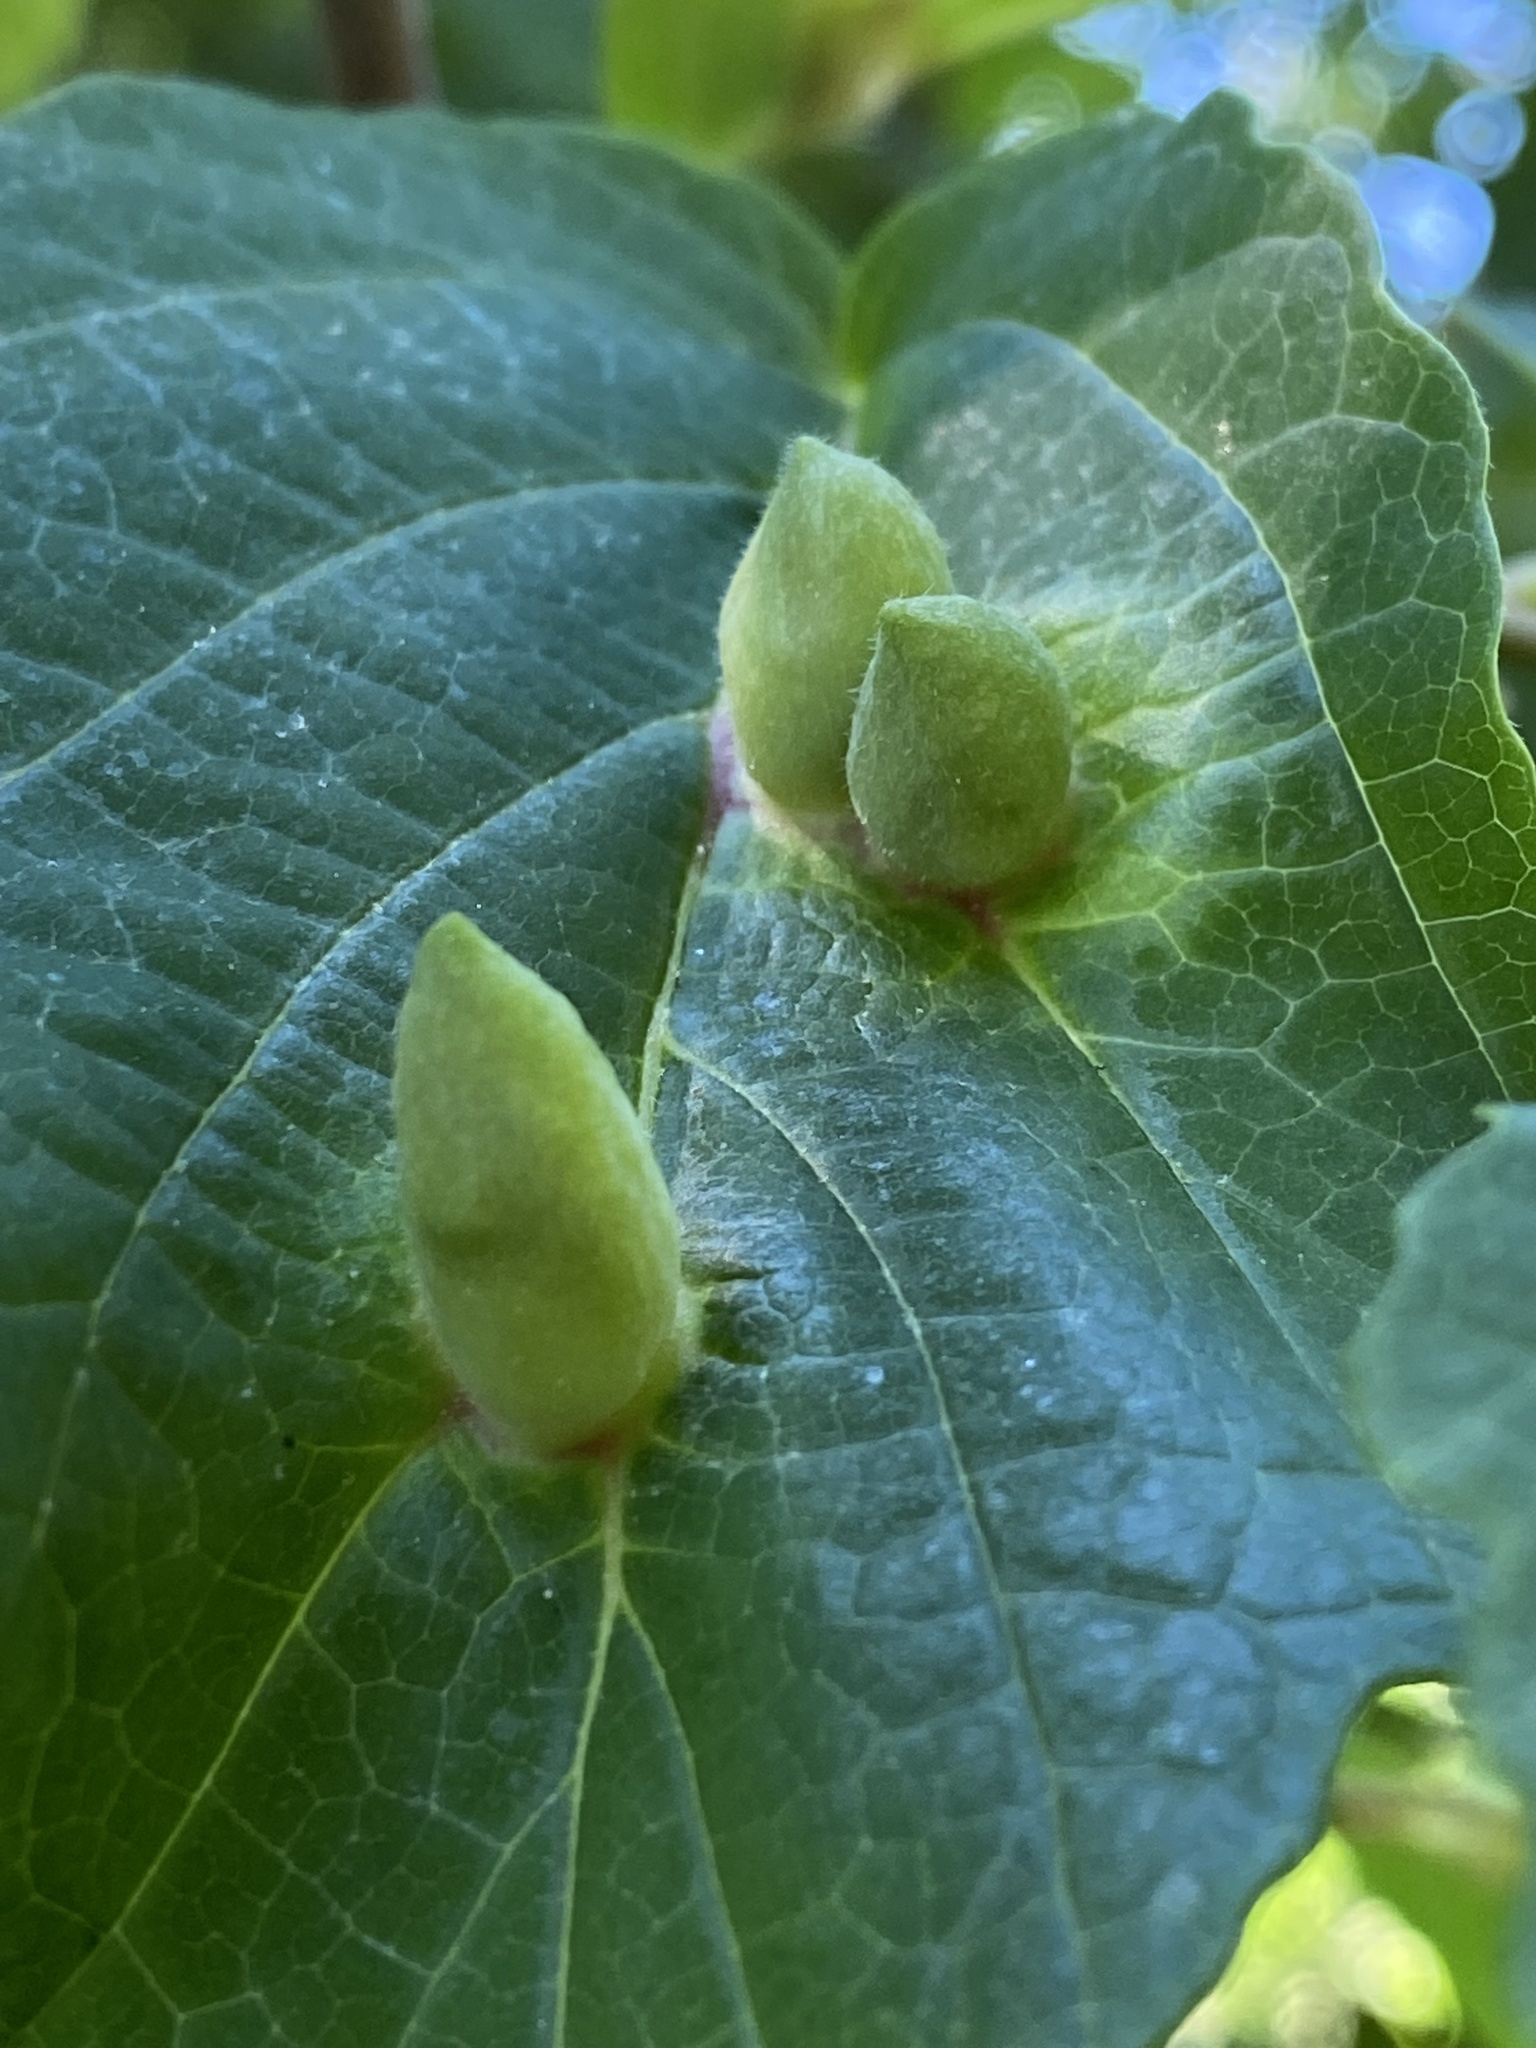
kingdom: Animalia
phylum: Arthropoda
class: Insecta
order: Hemiptera
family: Aphididae
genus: Hormaphis
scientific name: Hormaphis hamamelidis
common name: Witch-hazel cone gall aphid
